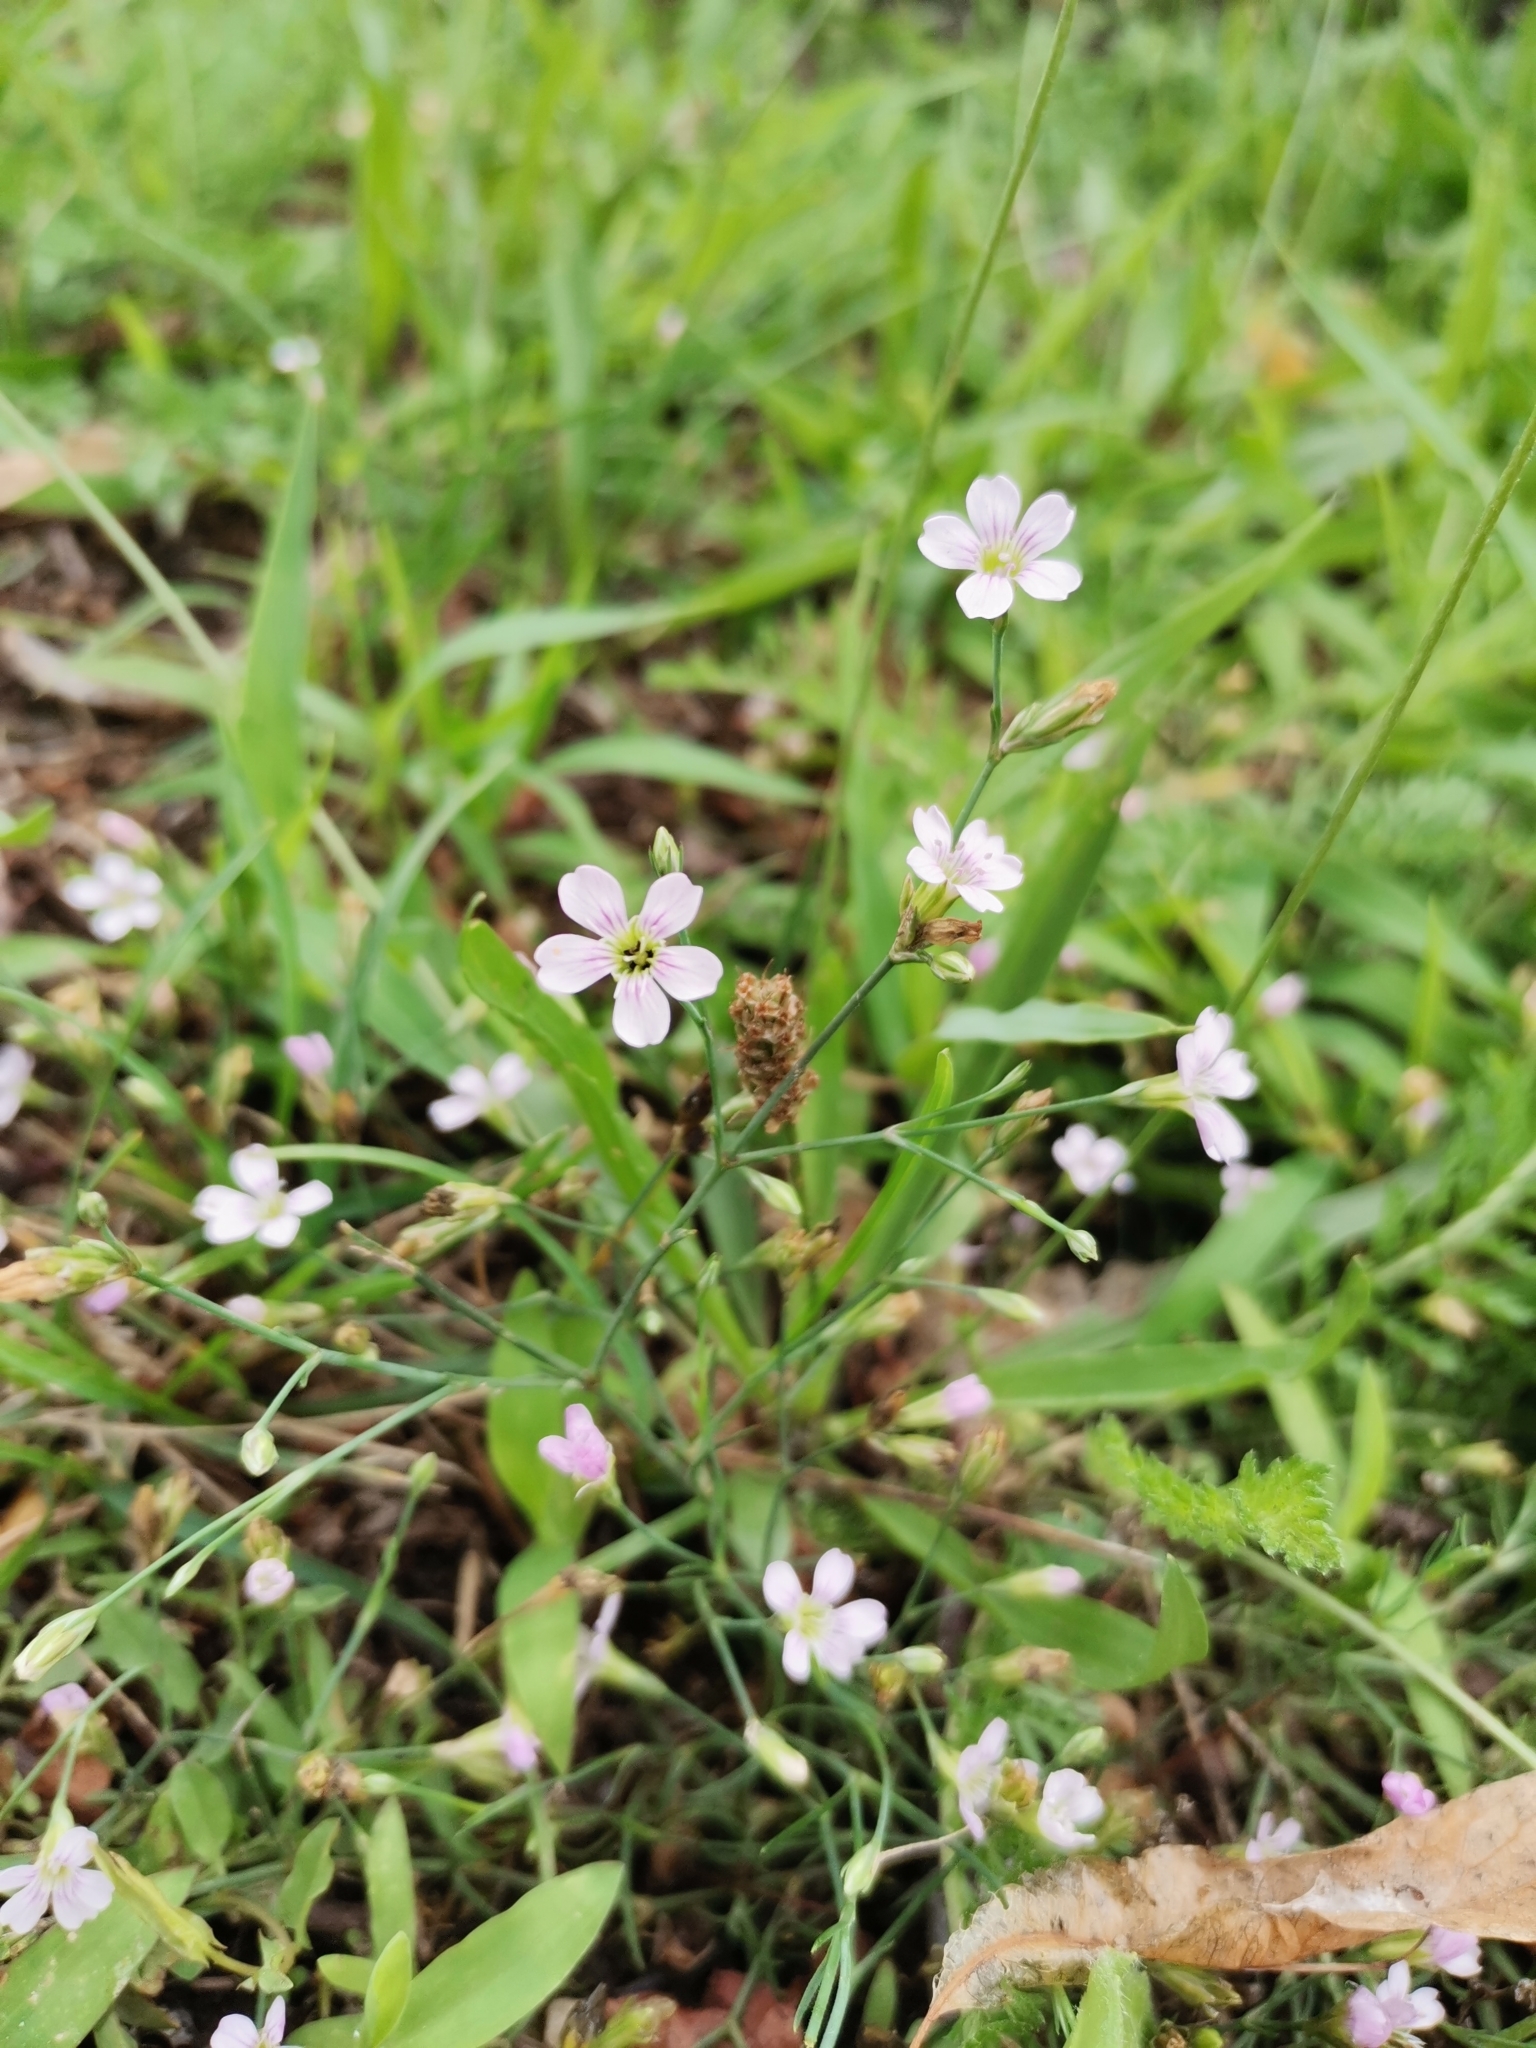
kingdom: Plantae
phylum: Tracheophyta
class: Magnoliopsida
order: Caryophyllales
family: Caryophyllaceae
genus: Petrorhagia
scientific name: Petrorhagia saxifraga
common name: Tunicflower
